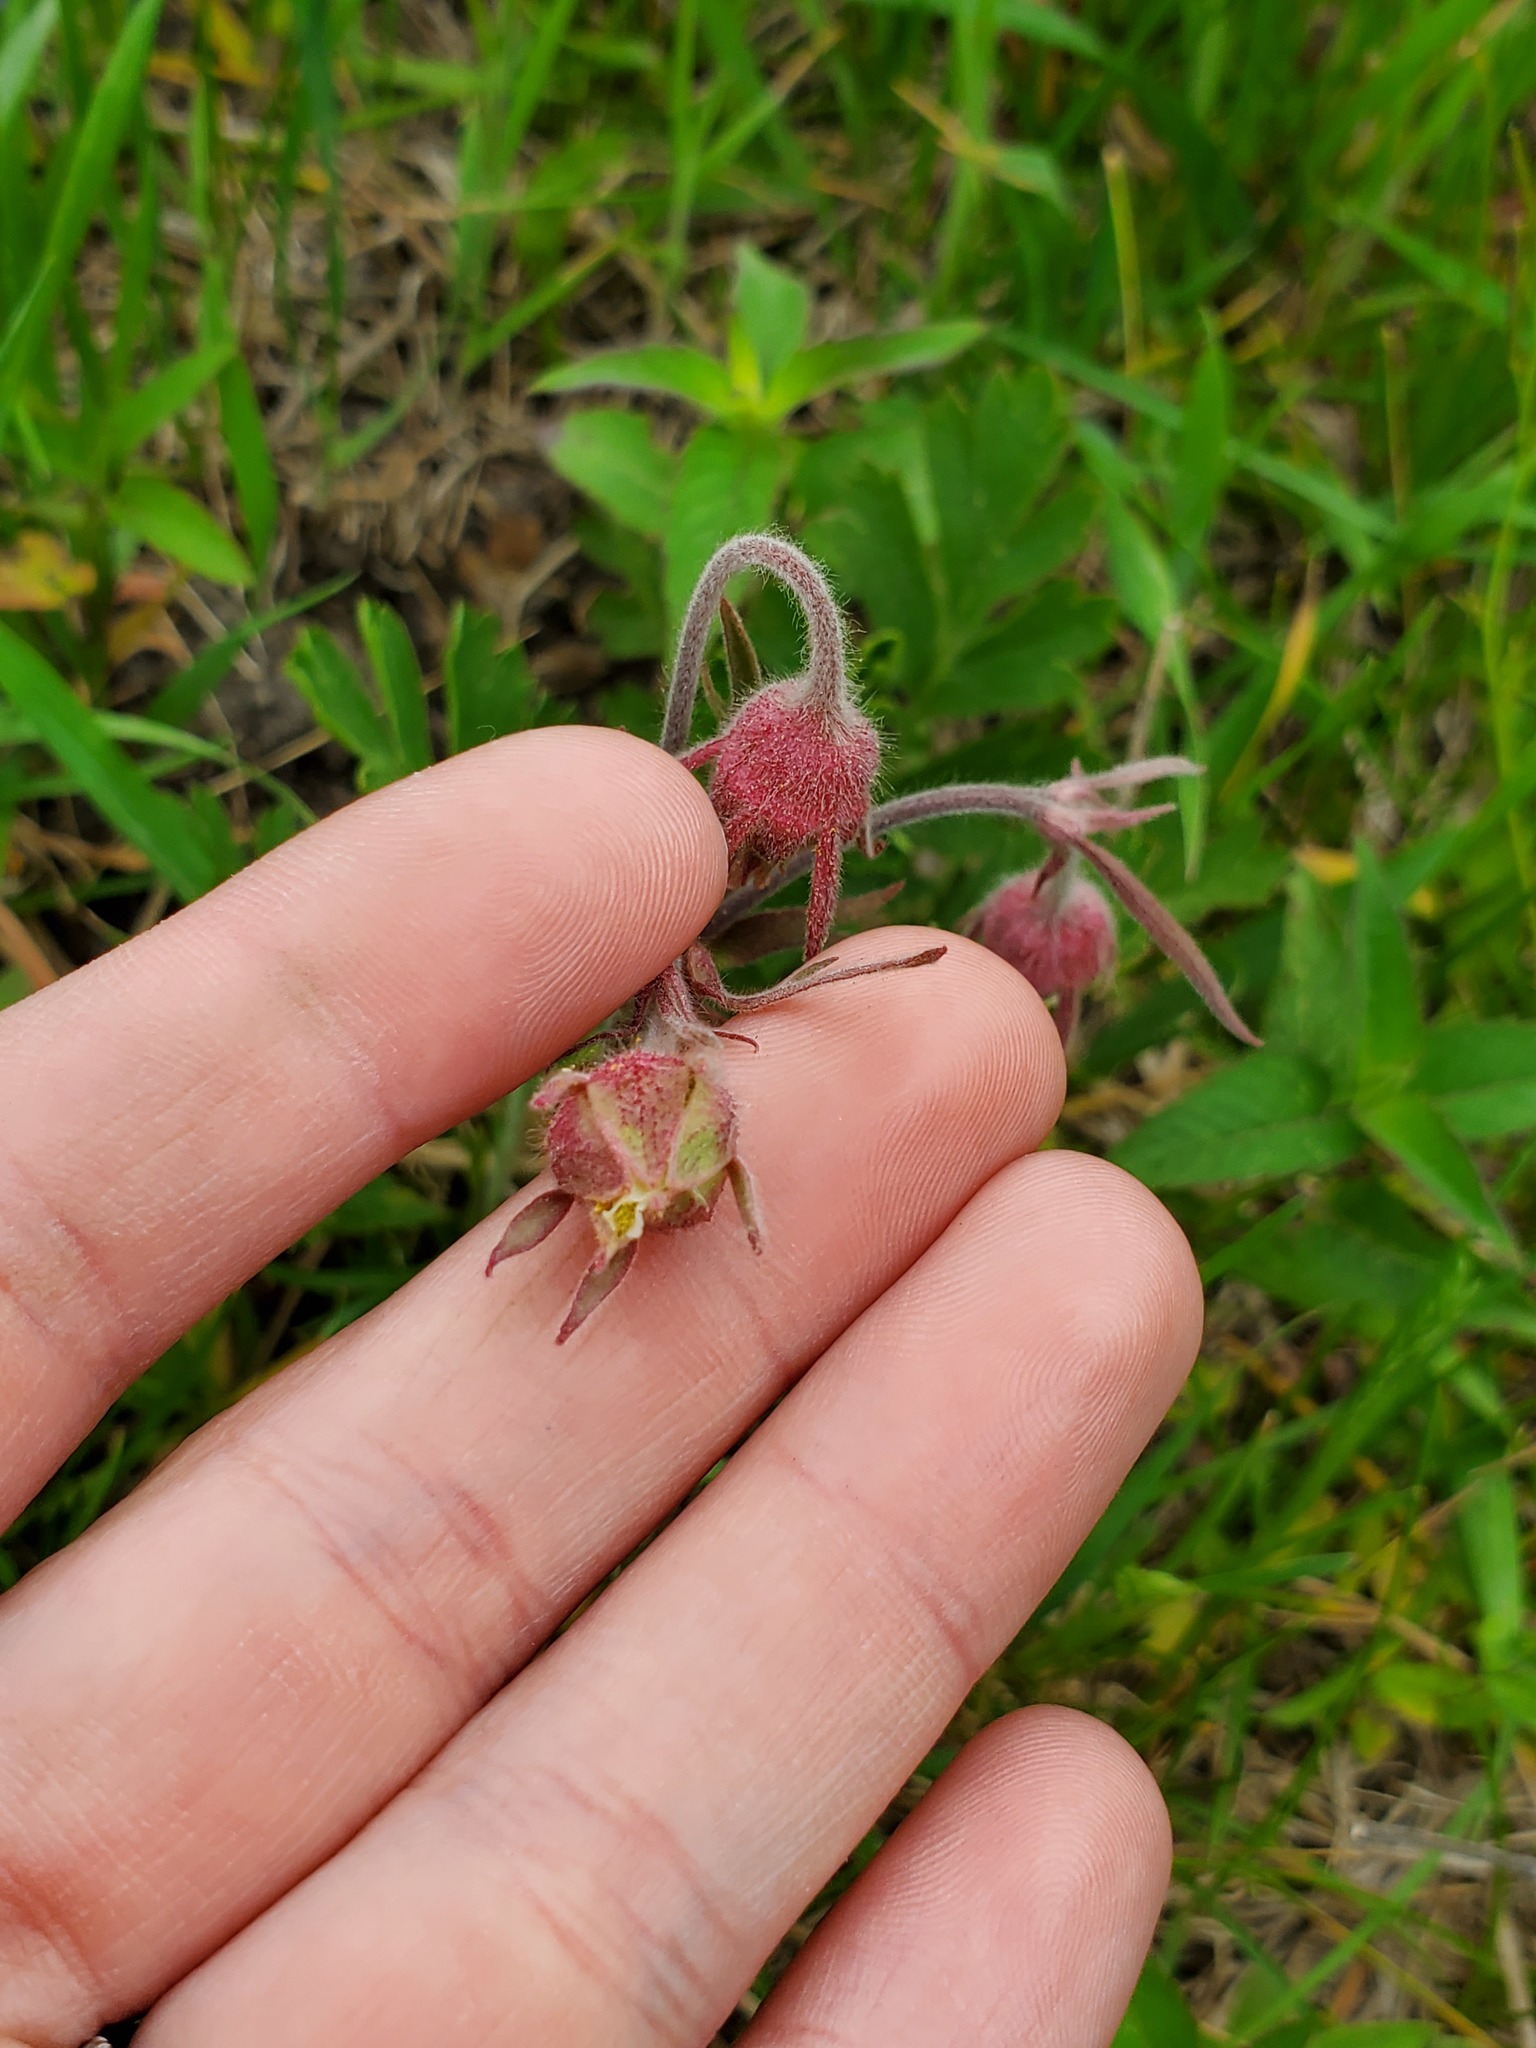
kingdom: Plantae
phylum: Tracheophyta
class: Magnoliopsida
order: Rosales
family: Rosaceae
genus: Geum
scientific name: Geum triflorum
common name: Old man's whiskers
